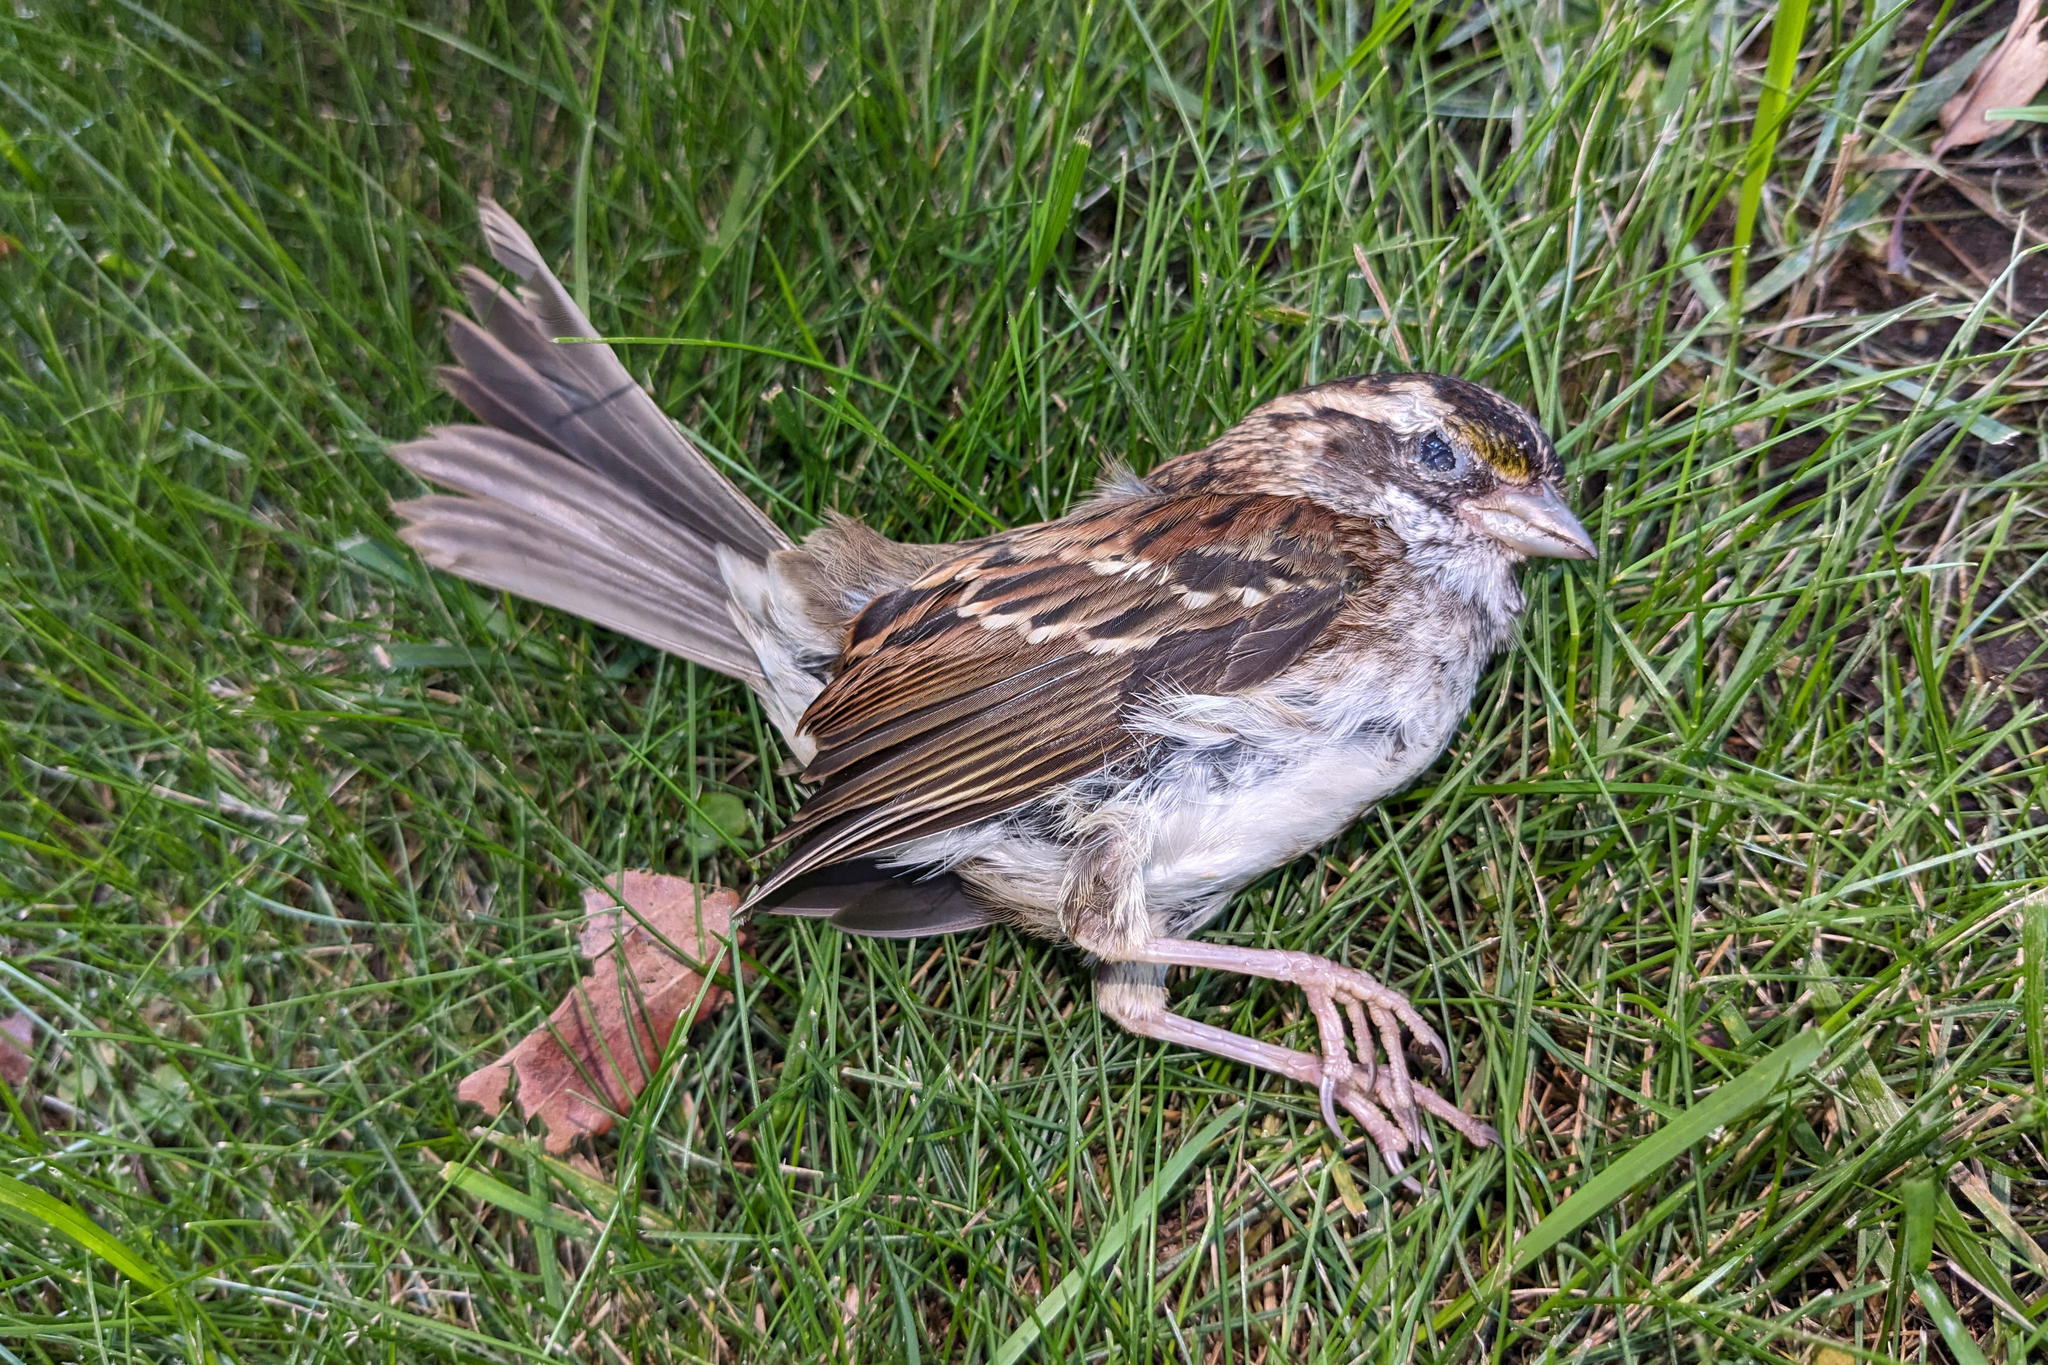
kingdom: Animalia
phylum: Chordata
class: Aves
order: Passeriformes
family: Passerellidae
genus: Zonotrichia
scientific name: Zonotrichia albicollis
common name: White-throated sparrow
